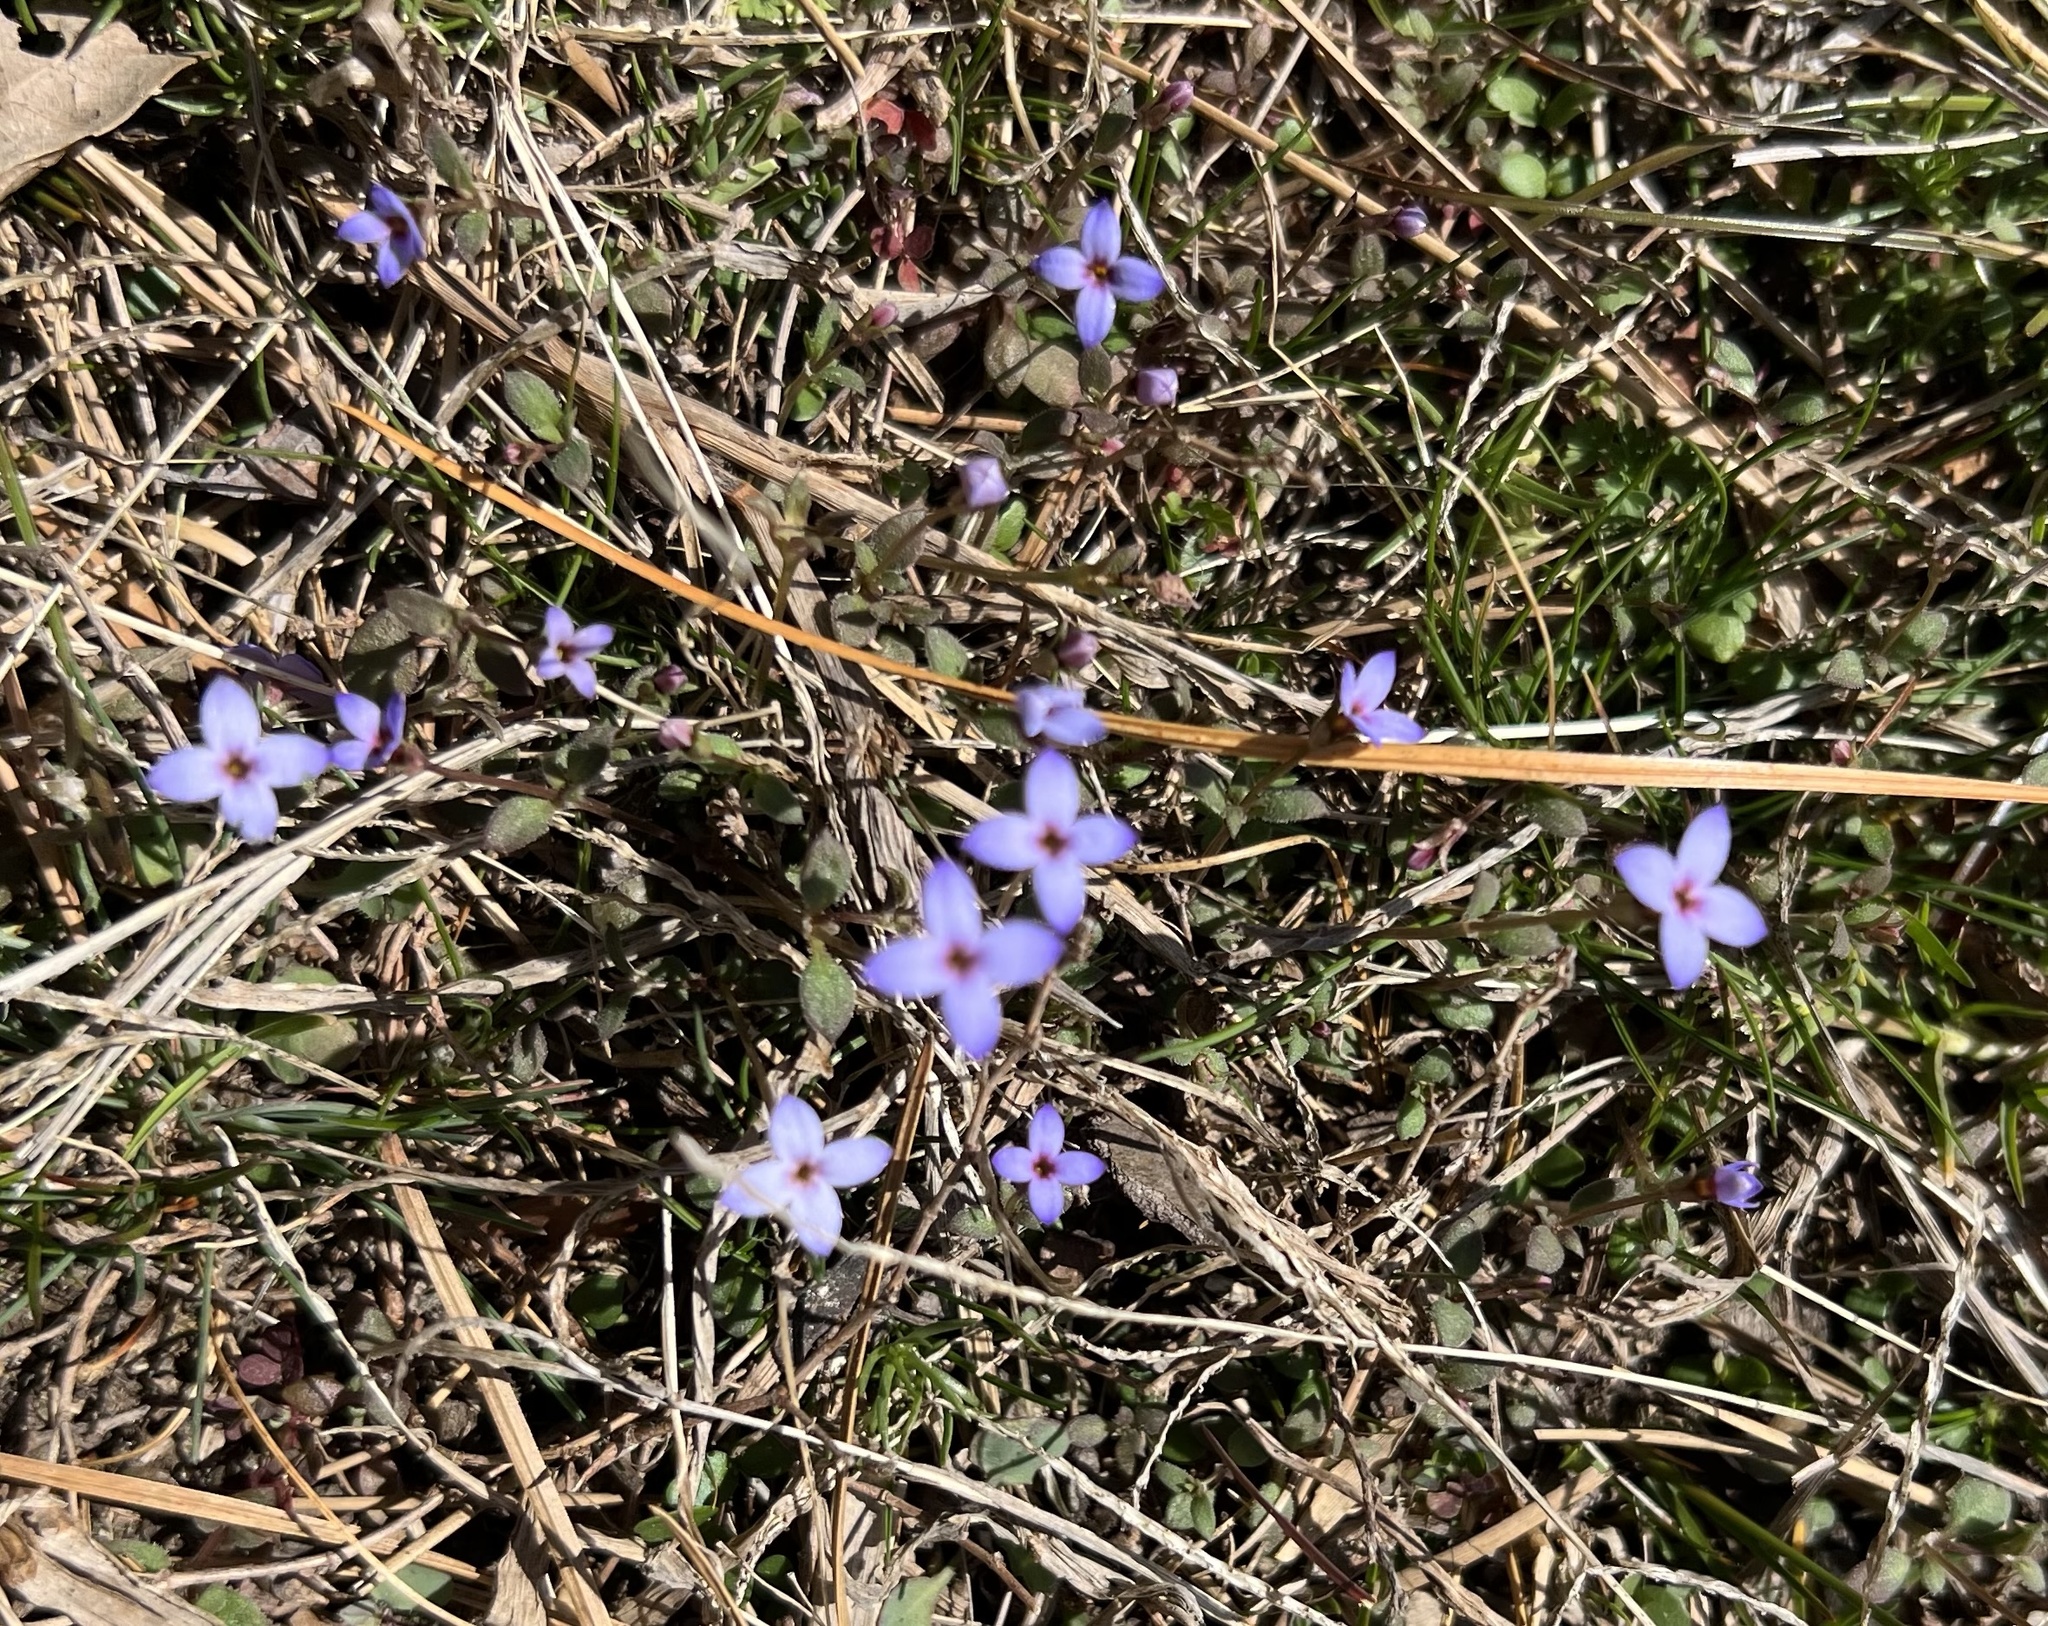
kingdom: Plantae
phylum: Tracheophyta
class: Magnoliopsida
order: Gentianales
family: Rubiaceae
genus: Houstonia
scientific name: Houstonia pusilla
